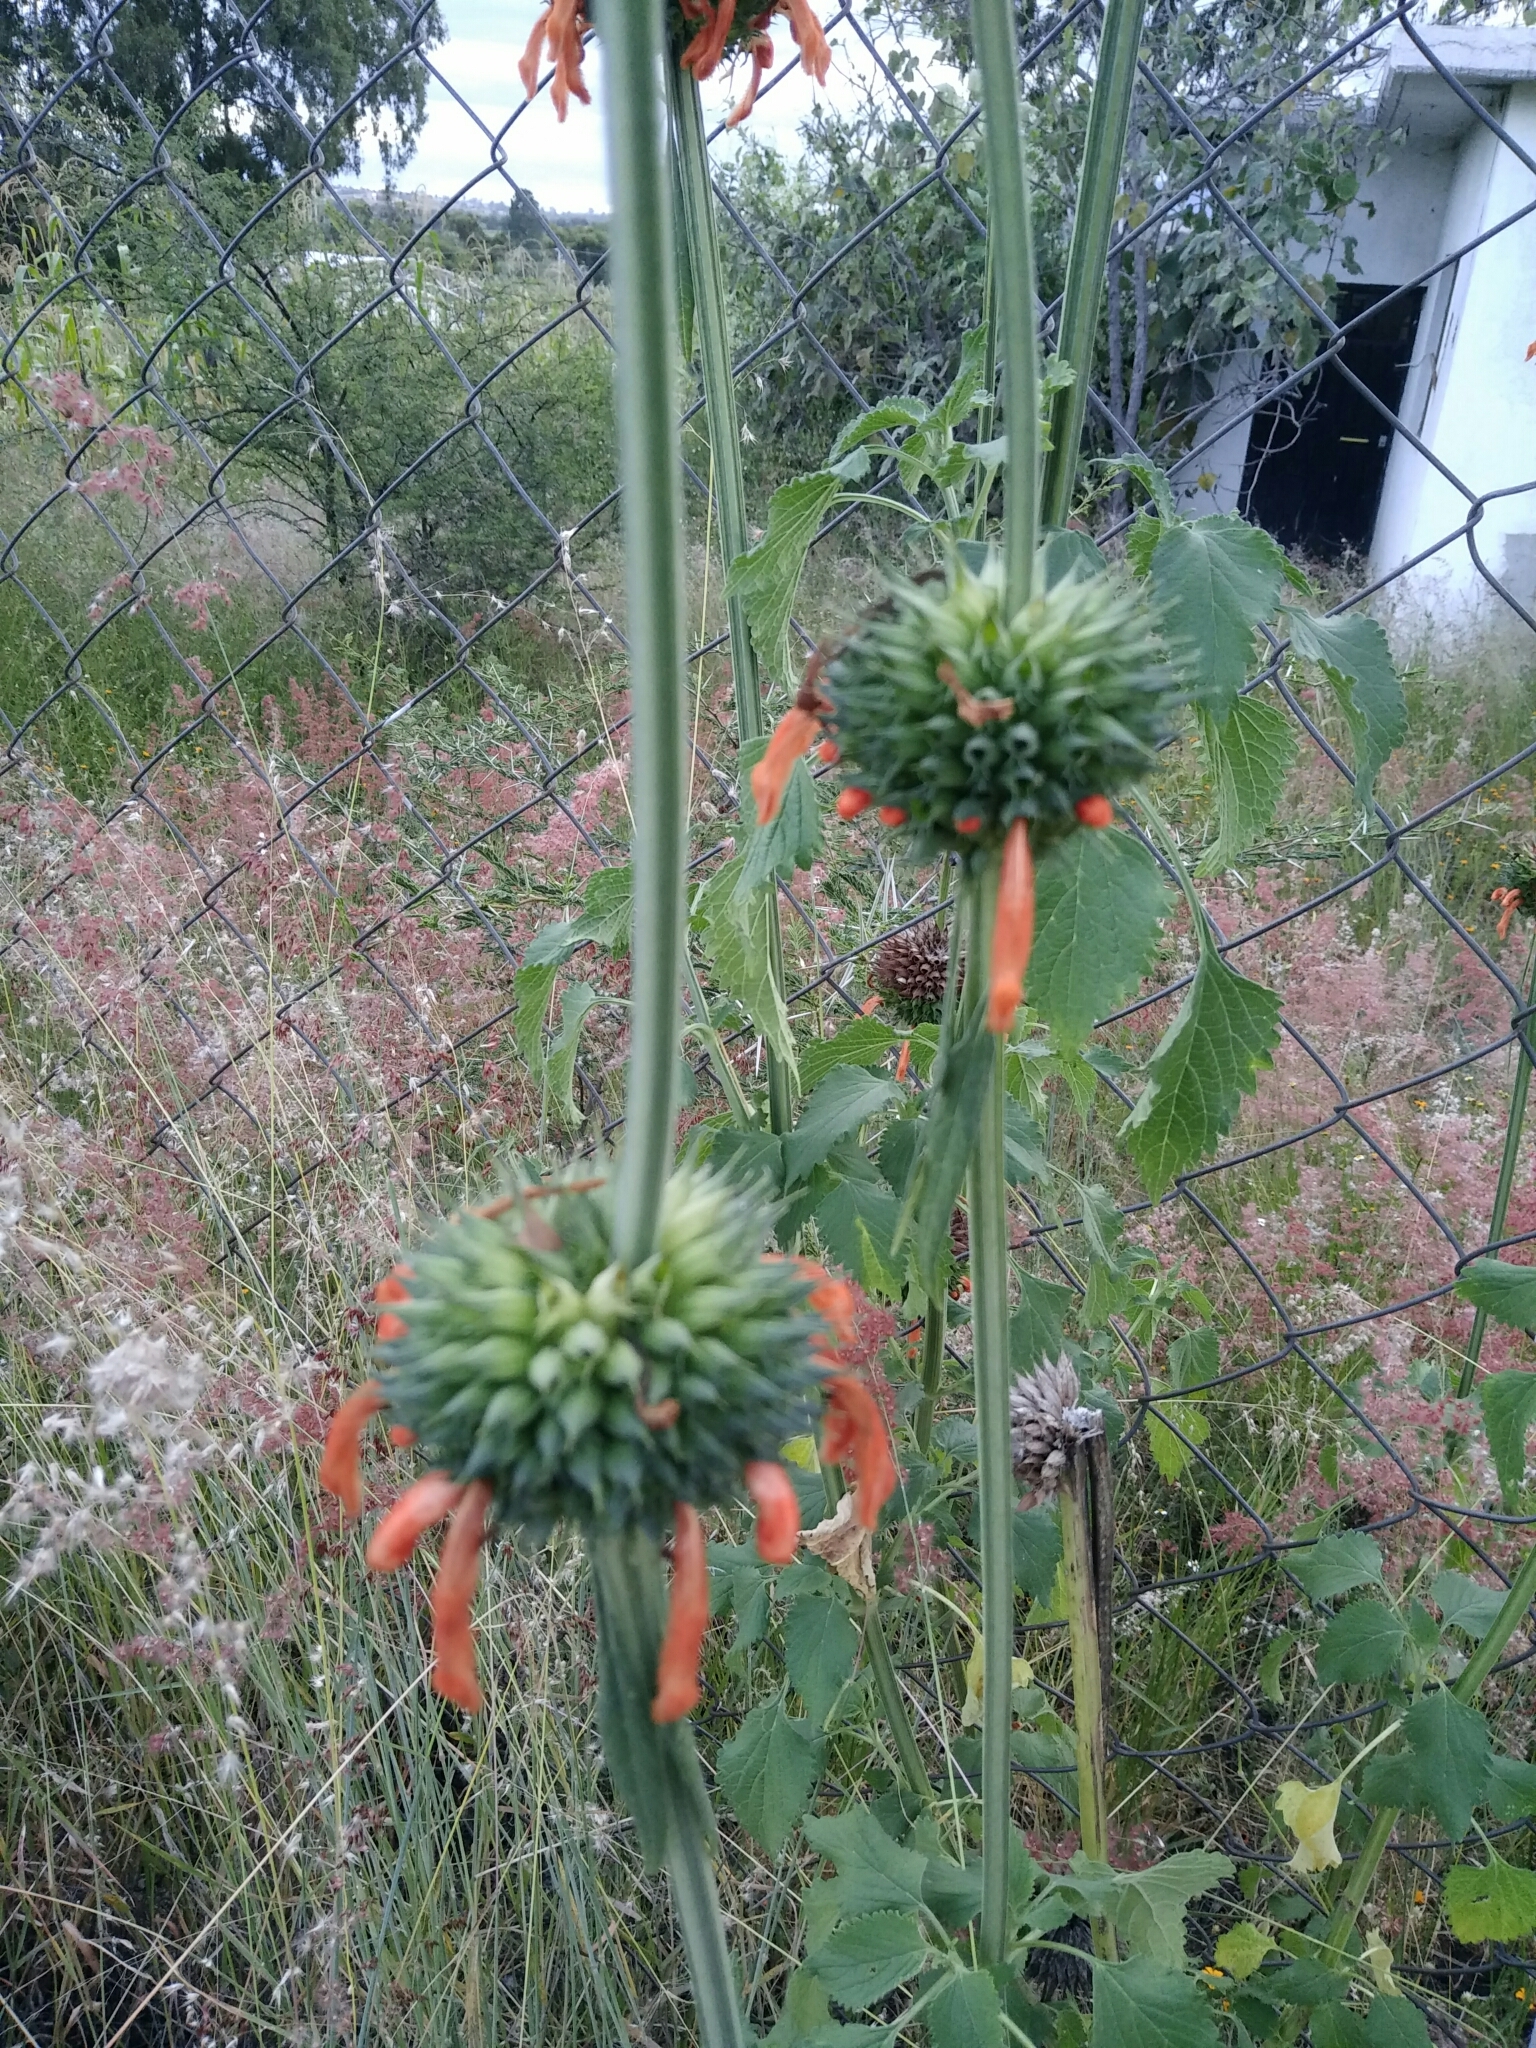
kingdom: Plantae
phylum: Tracheophyta
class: Magnoliopsida
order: Lamiales
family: Lamiaceae
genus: Leonotis
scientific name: Leonotis nepetifolia
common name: Christmas candlestick
